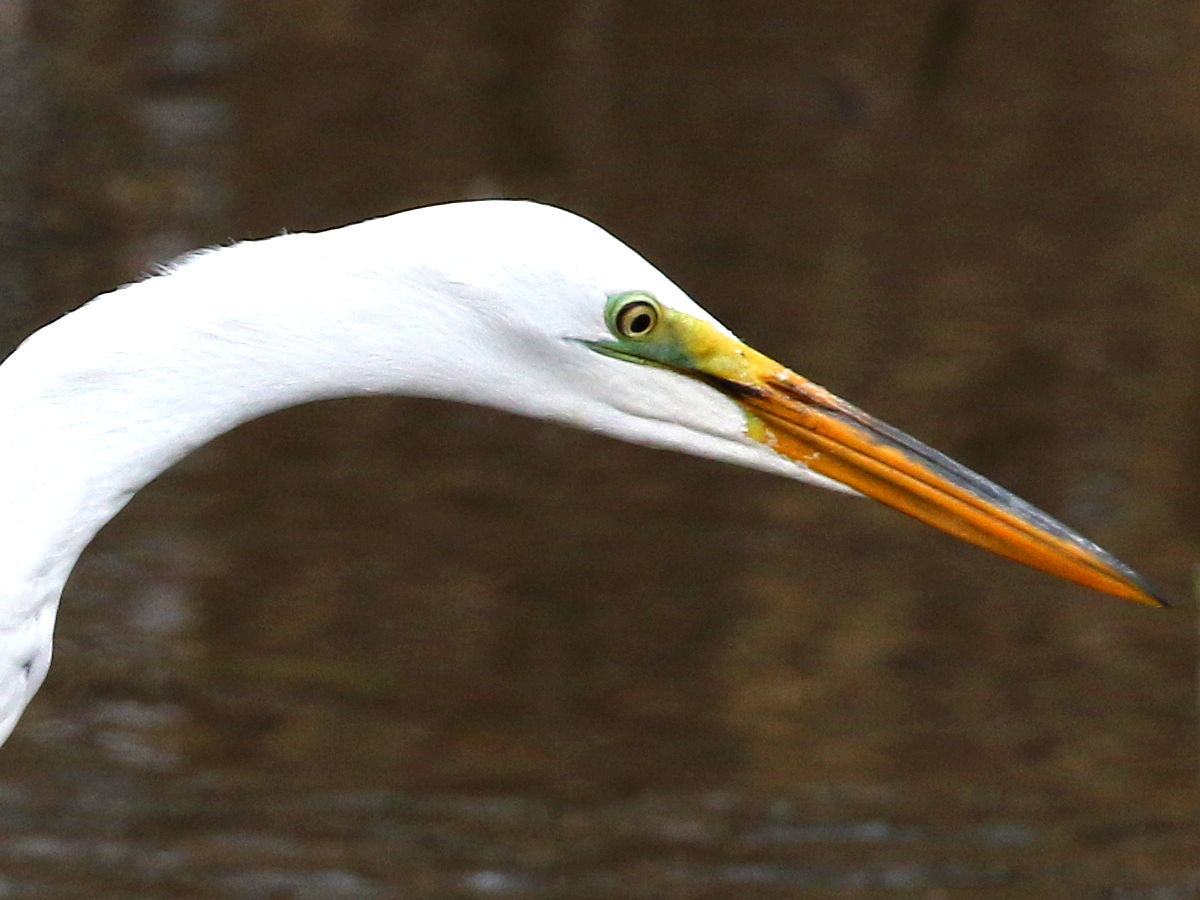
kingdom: Animalia
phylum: Chordata
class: Aves
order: Pelecaniformes
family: Ardeidae
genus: Ardea
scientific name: Ardea alba
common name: Great egret
